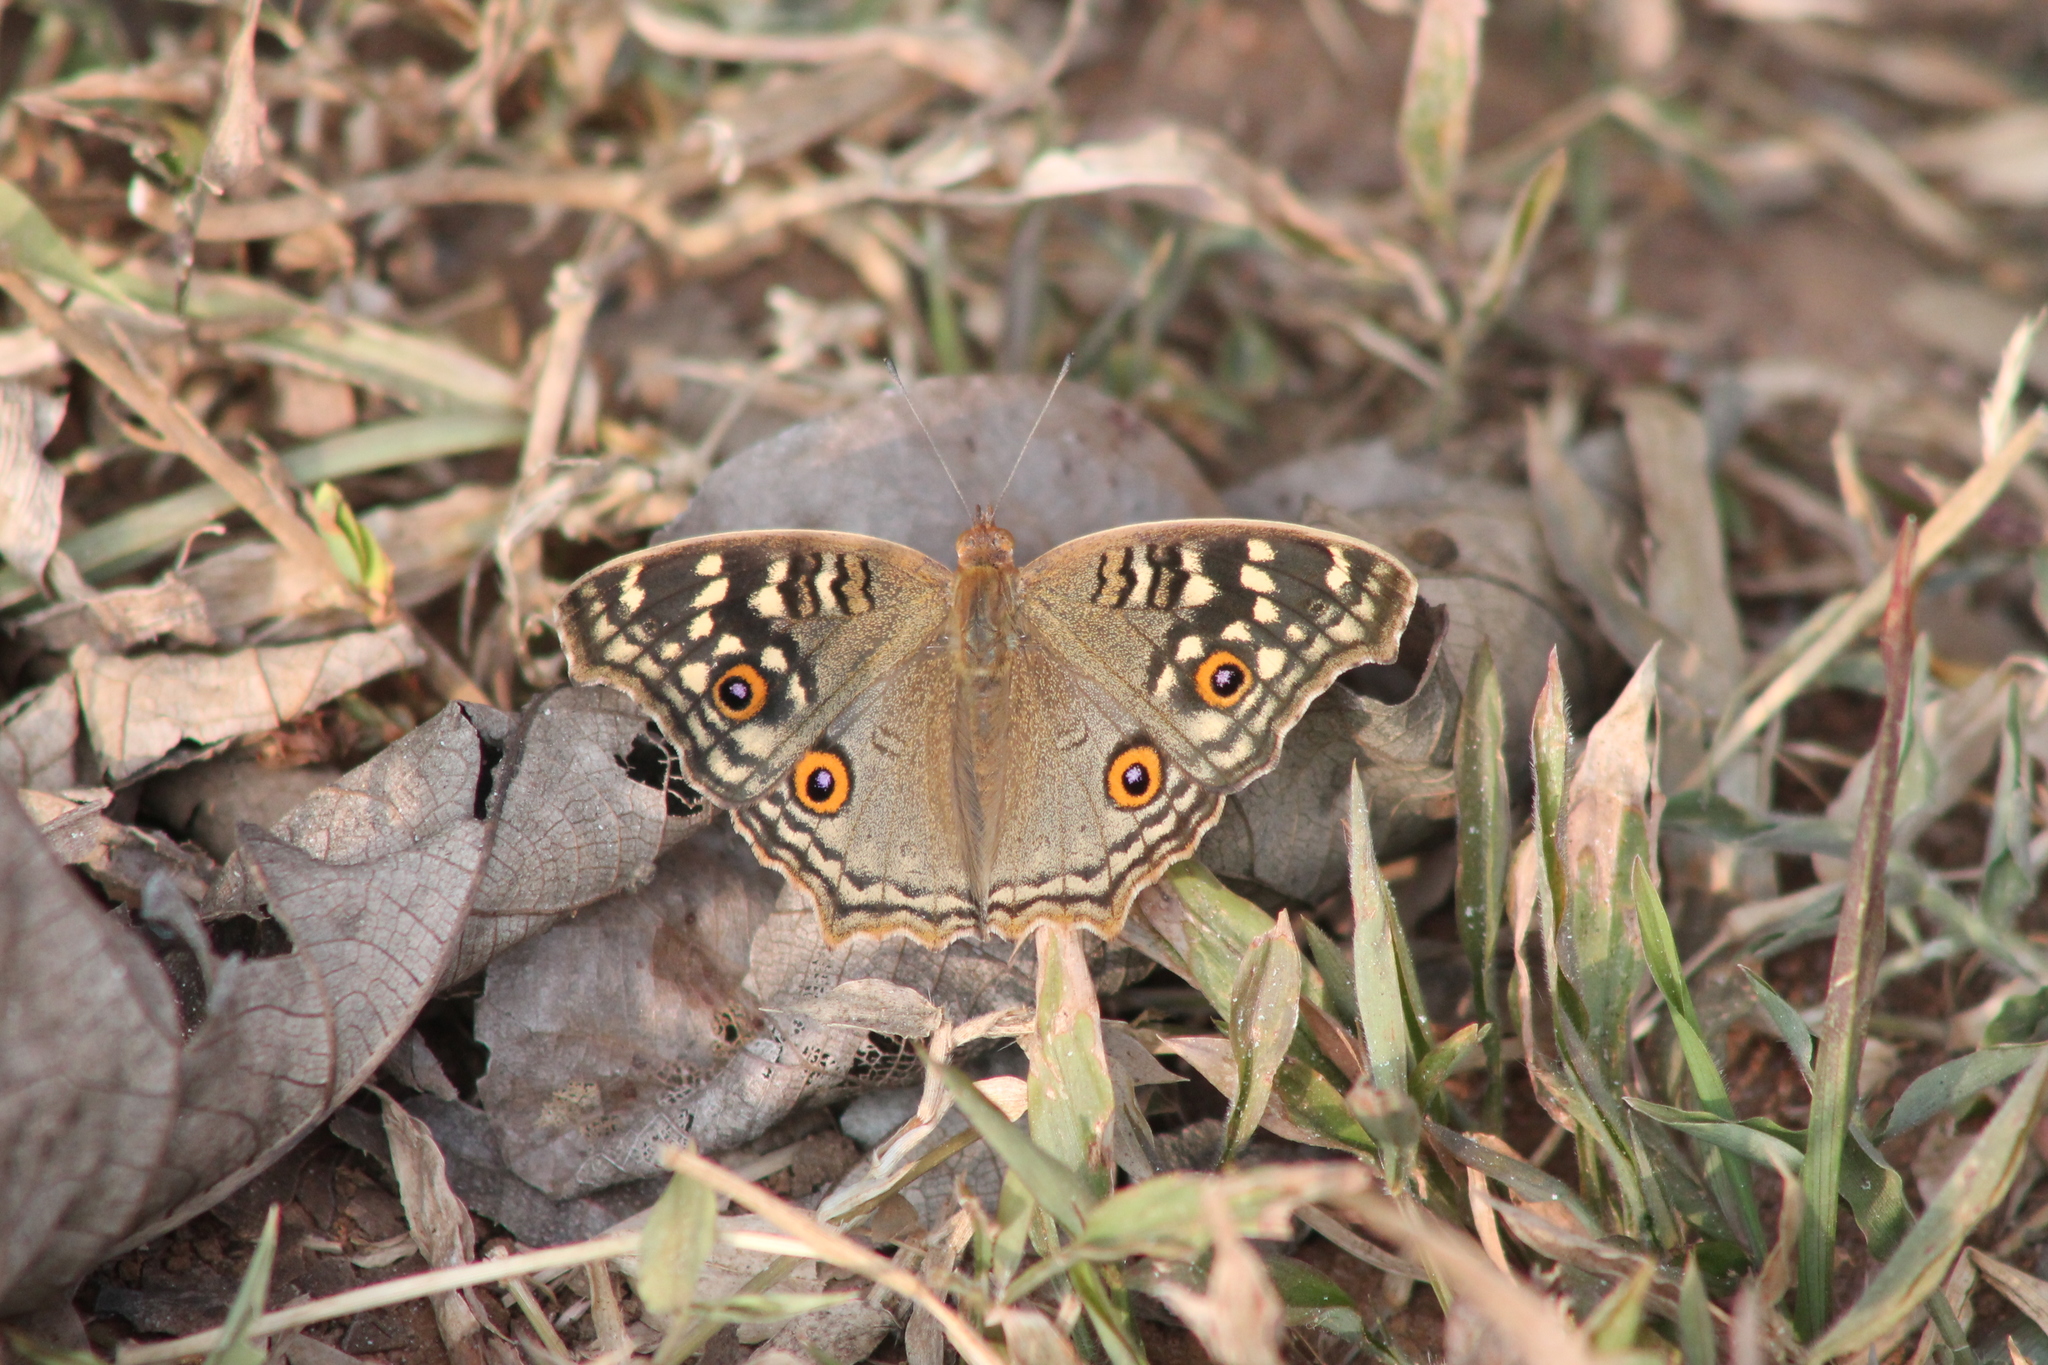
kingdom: Animalia
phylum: Arthropoda
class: Insecta
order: Lepidoptera
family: Nymphalidae
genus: Junonia
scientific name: Junonia lemonias
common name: Lemon pansy
